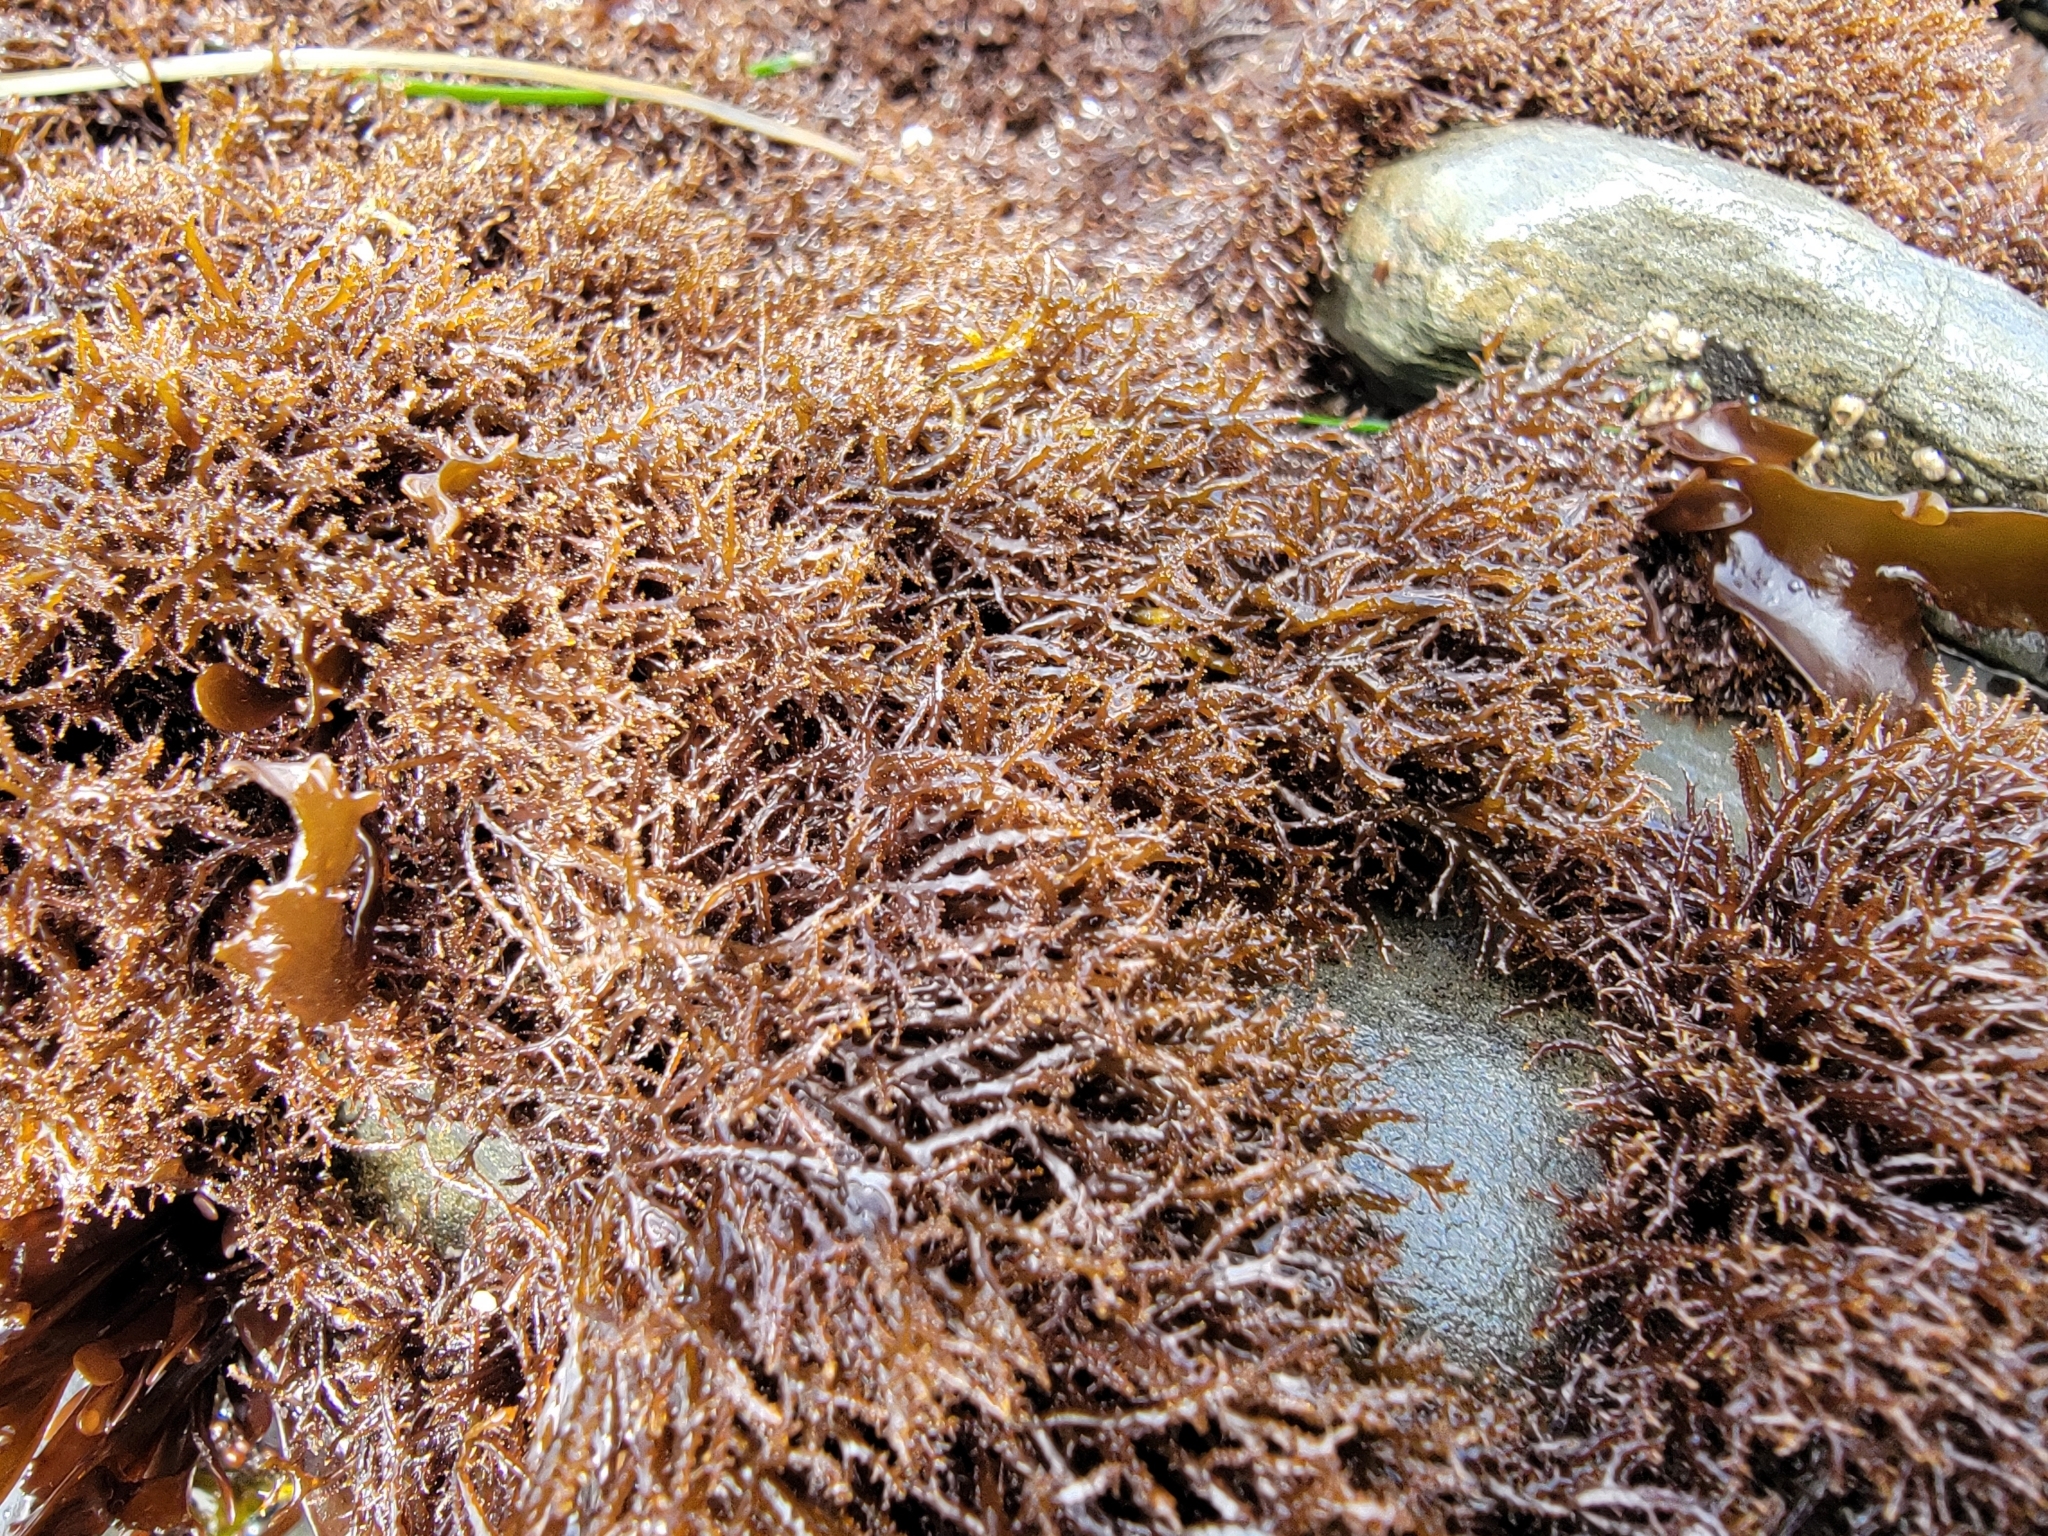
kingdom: Plantae
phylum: Rhodophyta
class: Florideophyceae
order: Gigartinales
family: Endocladiaceae
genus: Endocladia
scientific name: Endocladia muricata
